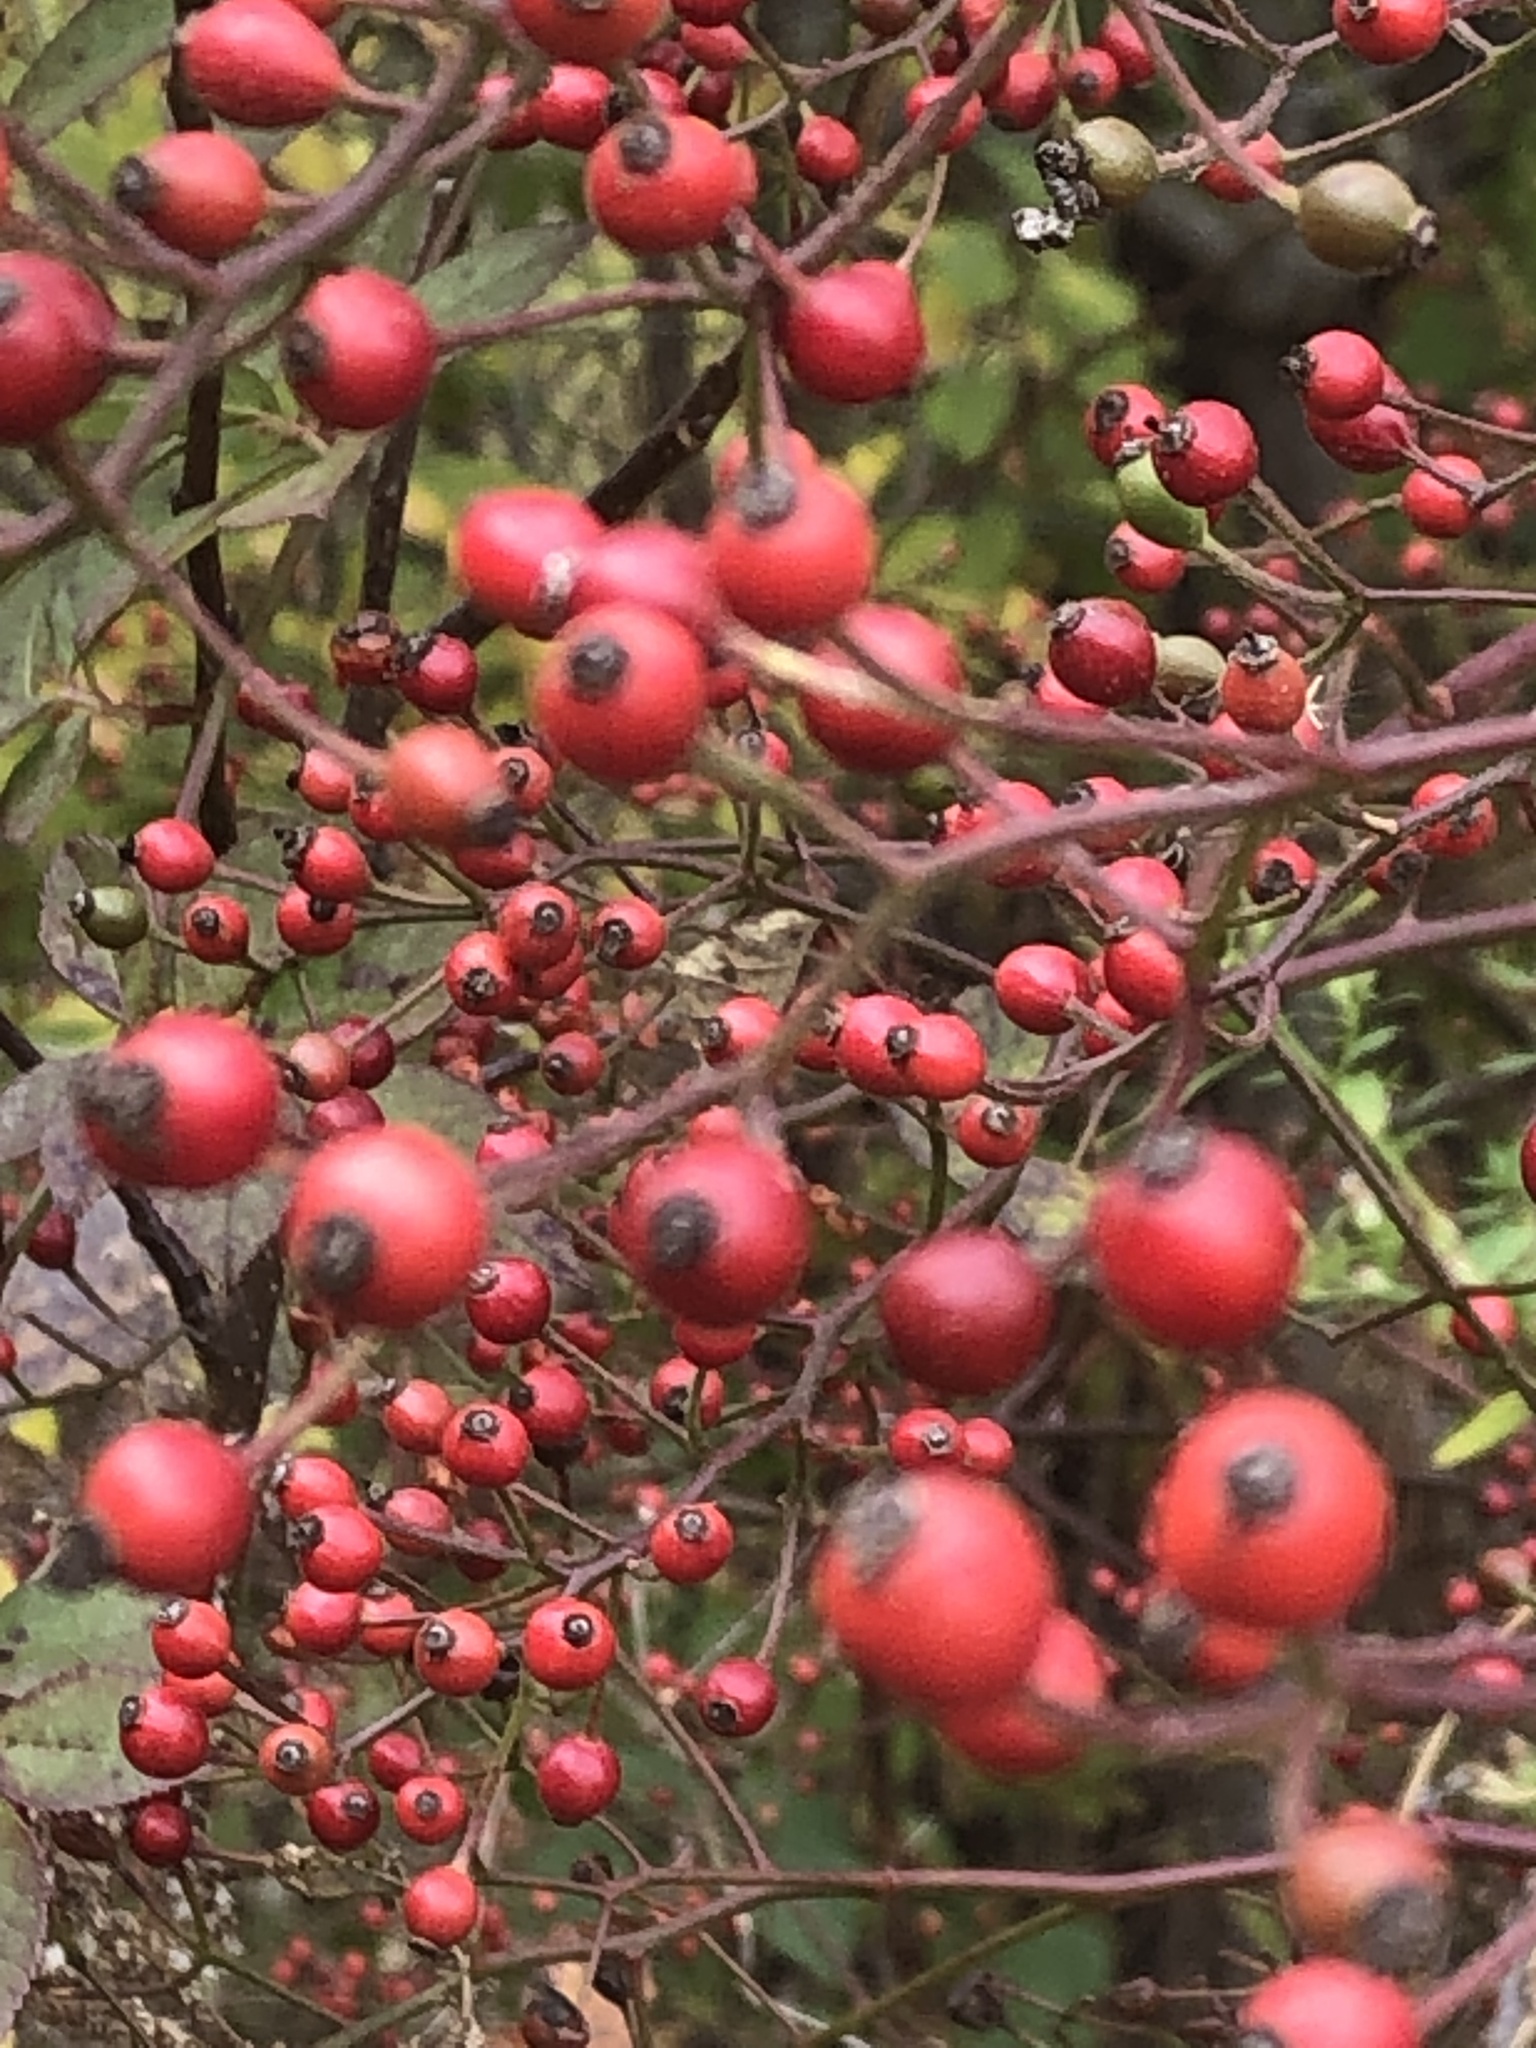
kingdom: Plantae
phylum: Tracheophyta
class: Magnoliopsida
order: Rosales
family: Rosaceae
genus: Rosa
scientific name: Rosa multiflora
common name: Multiflora rose
